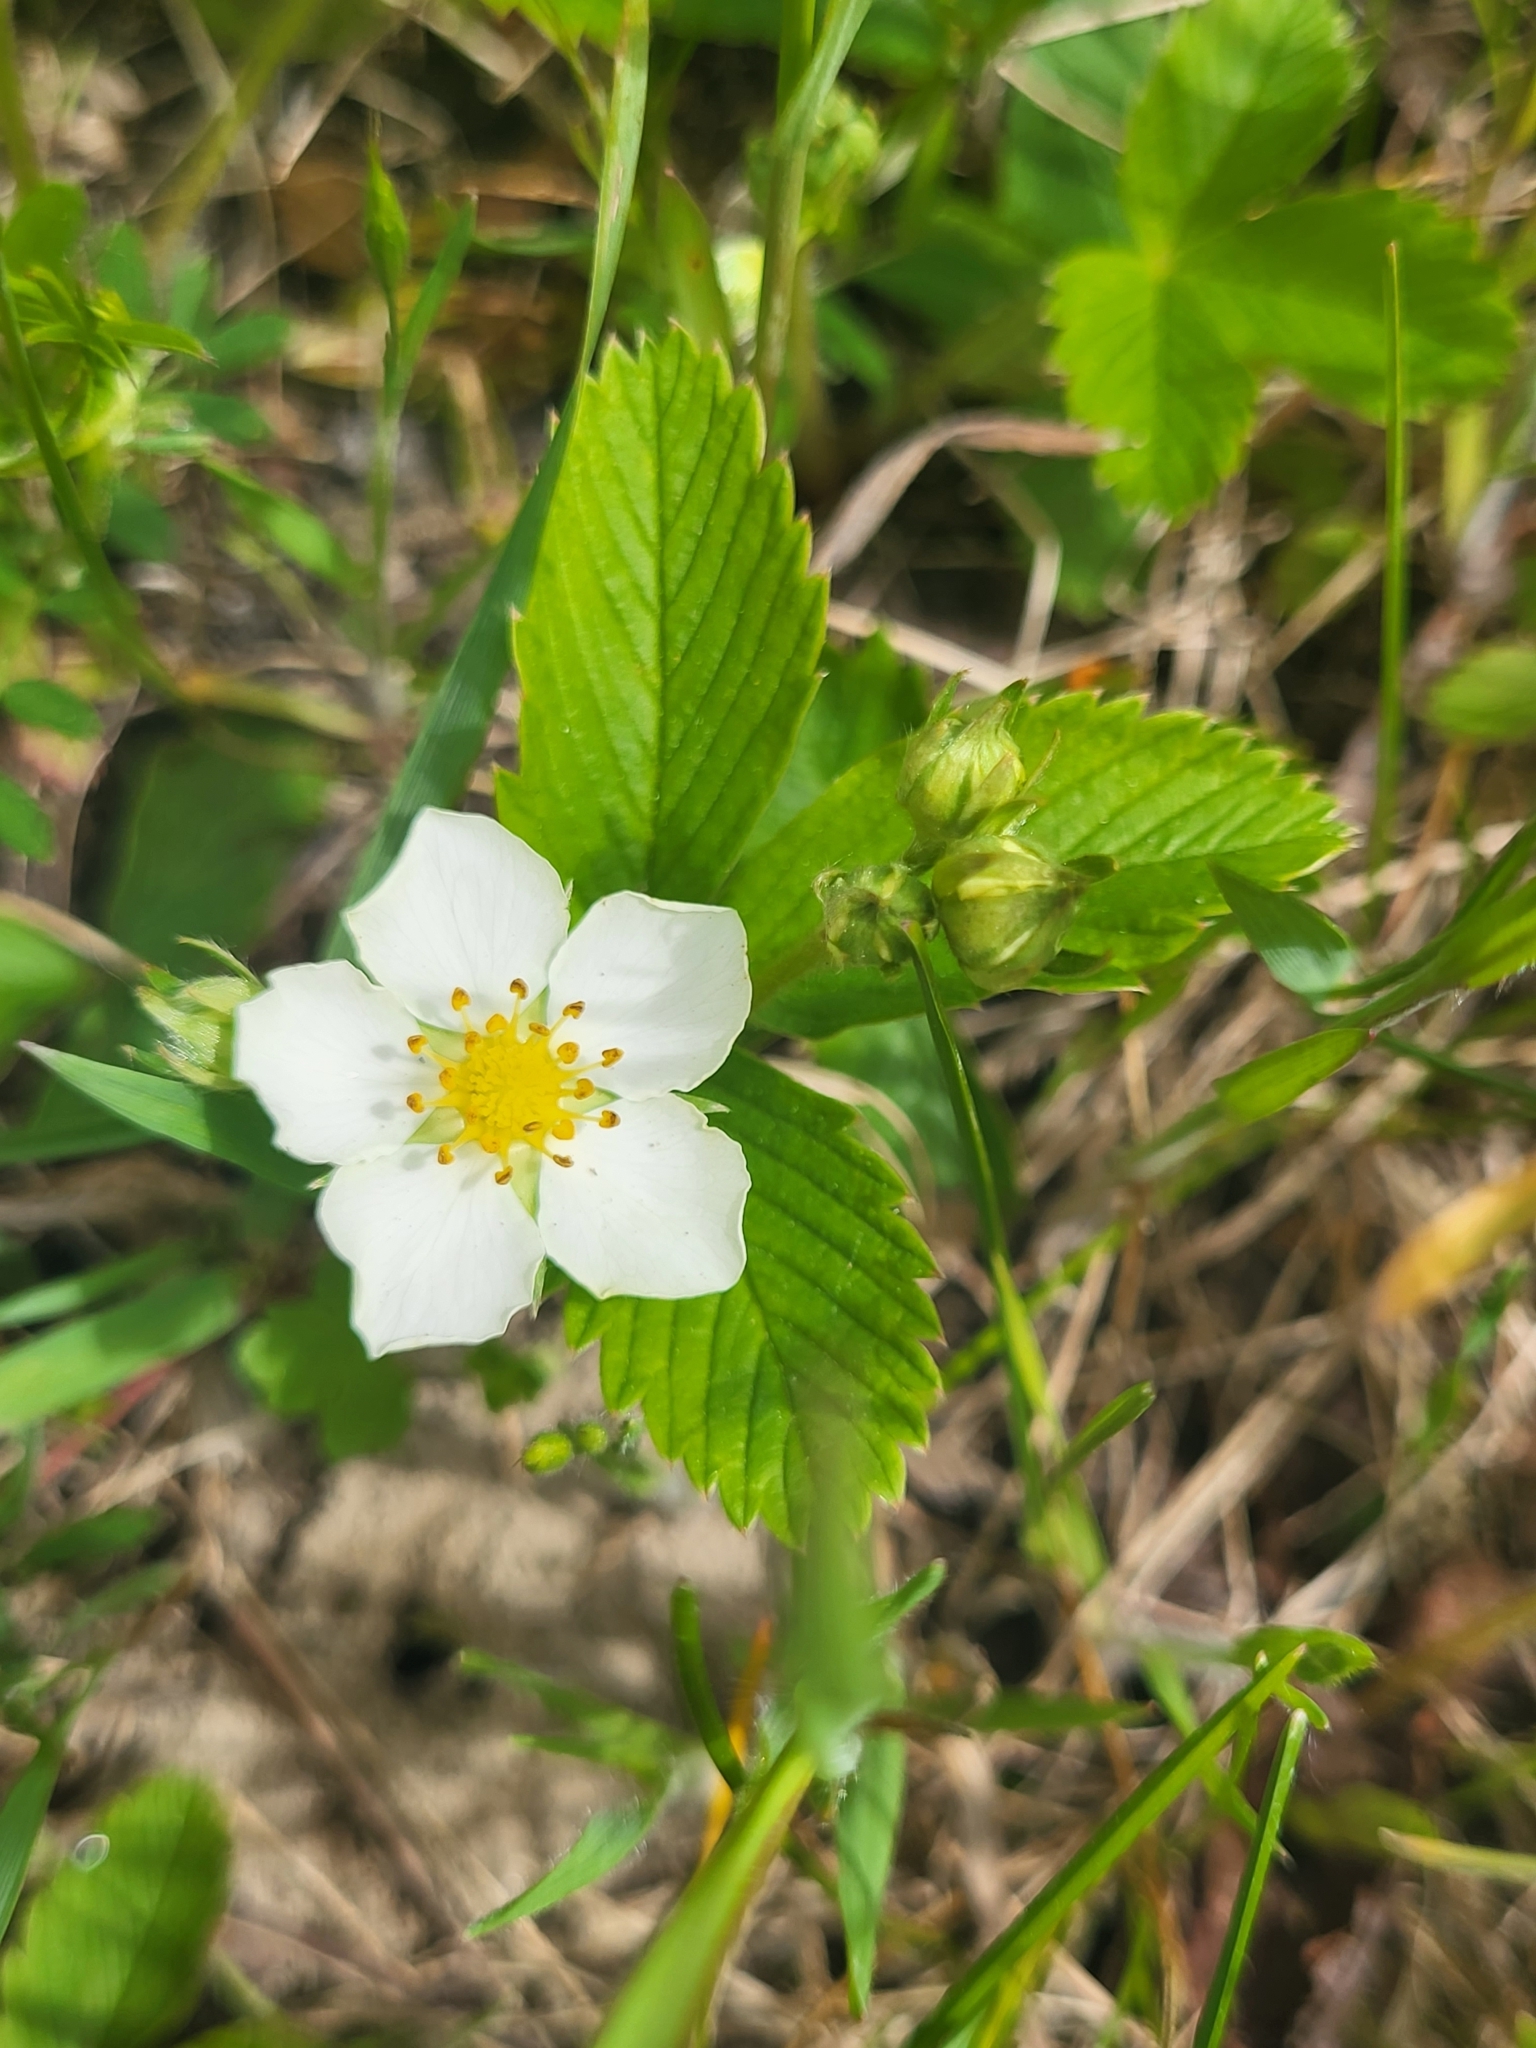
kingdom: Plantae
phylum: Tracheophyta
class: Magnoliopsida
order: Rosales
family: Rosaceae
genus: Fragaria
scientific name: Fragaria viridis
